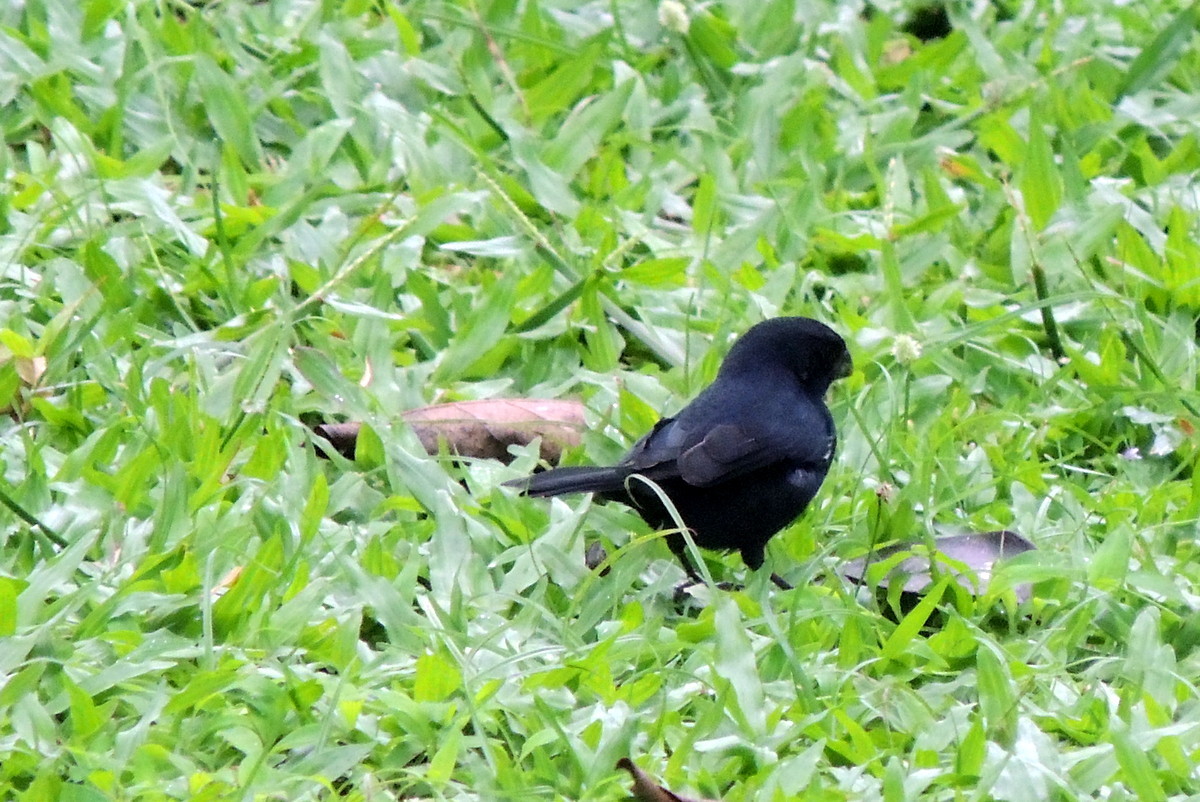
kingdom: Animalia
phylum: Chordata
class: Aves
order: Passeriformes
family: Thraupidae
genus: Sporophila
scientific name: Sporophila corvina
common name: Variable seedeater
